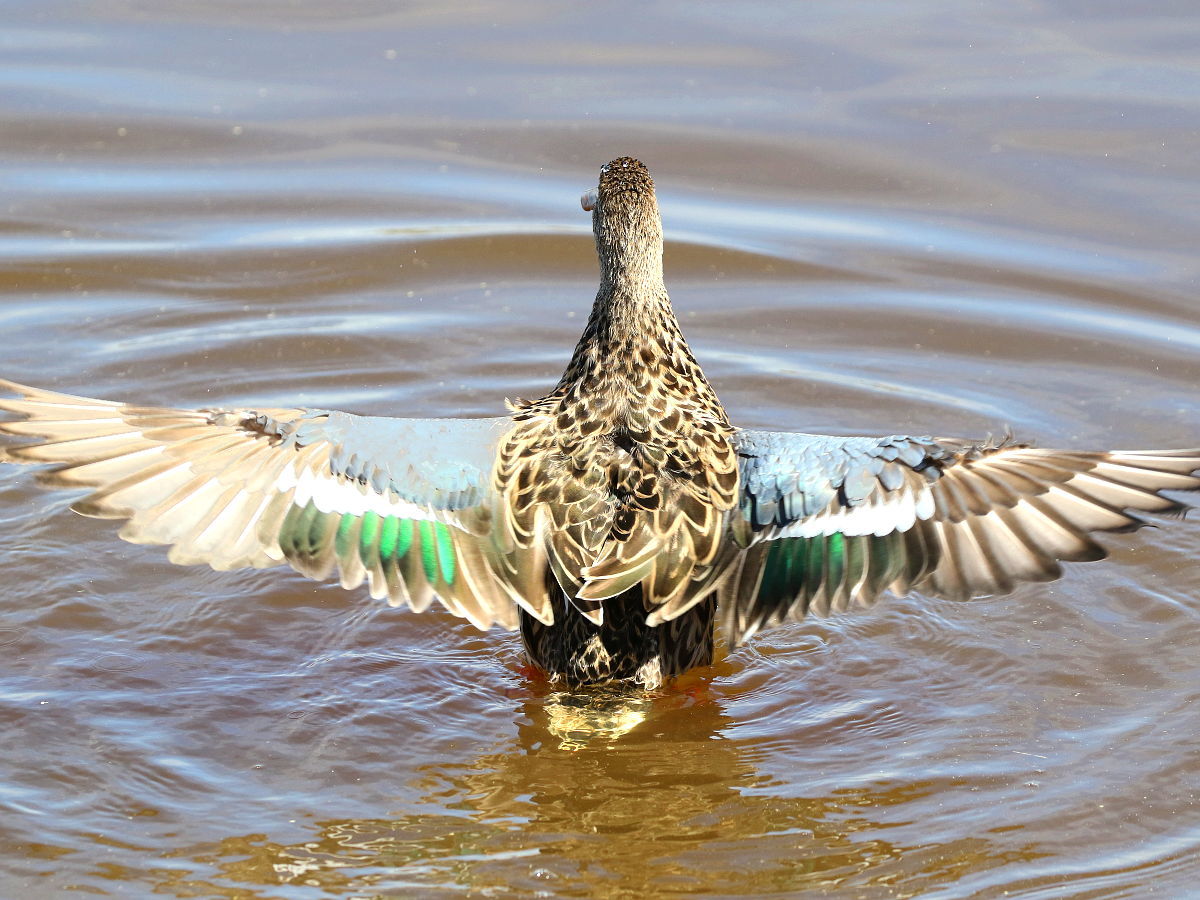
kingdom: Animalia
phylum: Chordata
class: Aves
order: Anseriformes
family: Anatidae
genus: Spatula
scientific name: Spatula clypeata
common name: Northern shoveler
